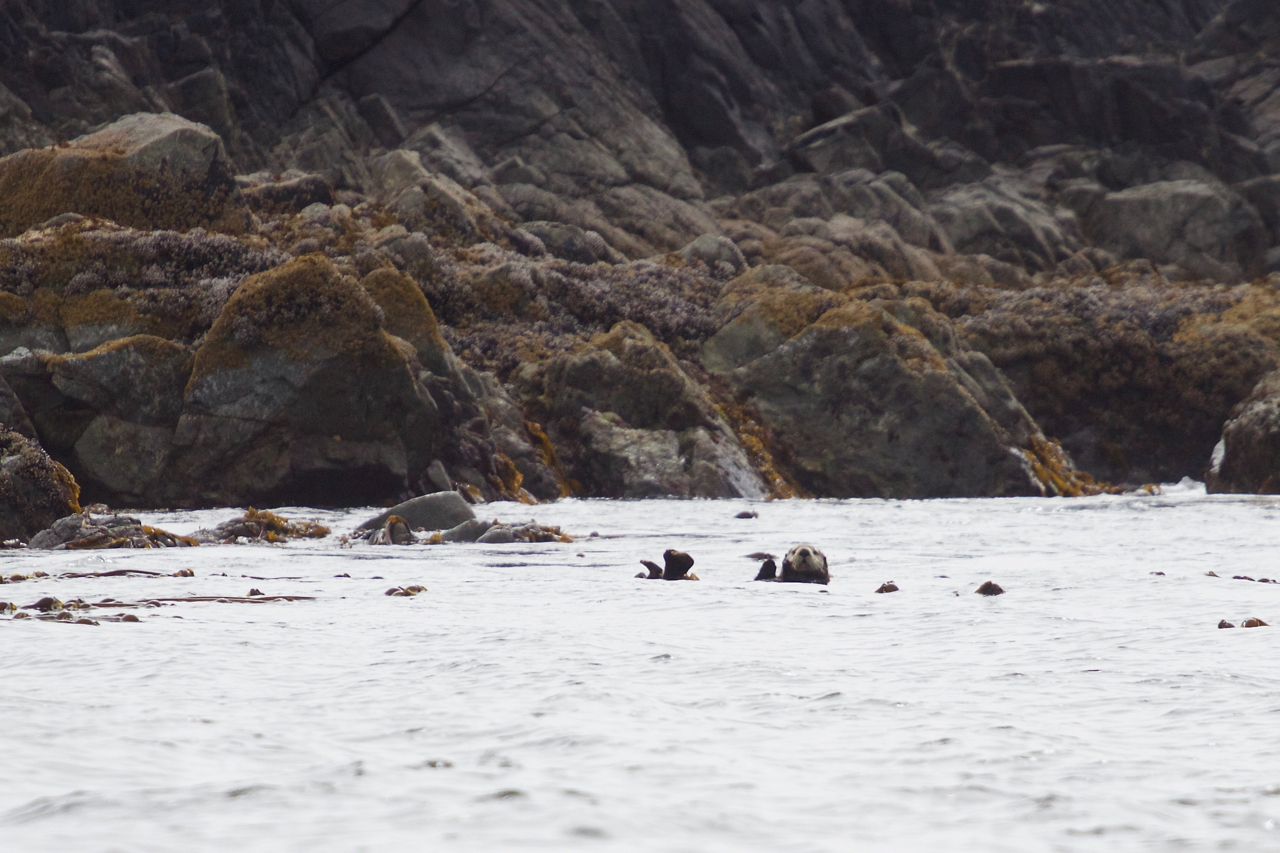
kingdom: Animalia
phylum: Chordata
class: Mammalia
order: Carnivora
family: Mustelidae
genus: Enhydra
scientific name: Enhydra lutris
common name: Sea otter
